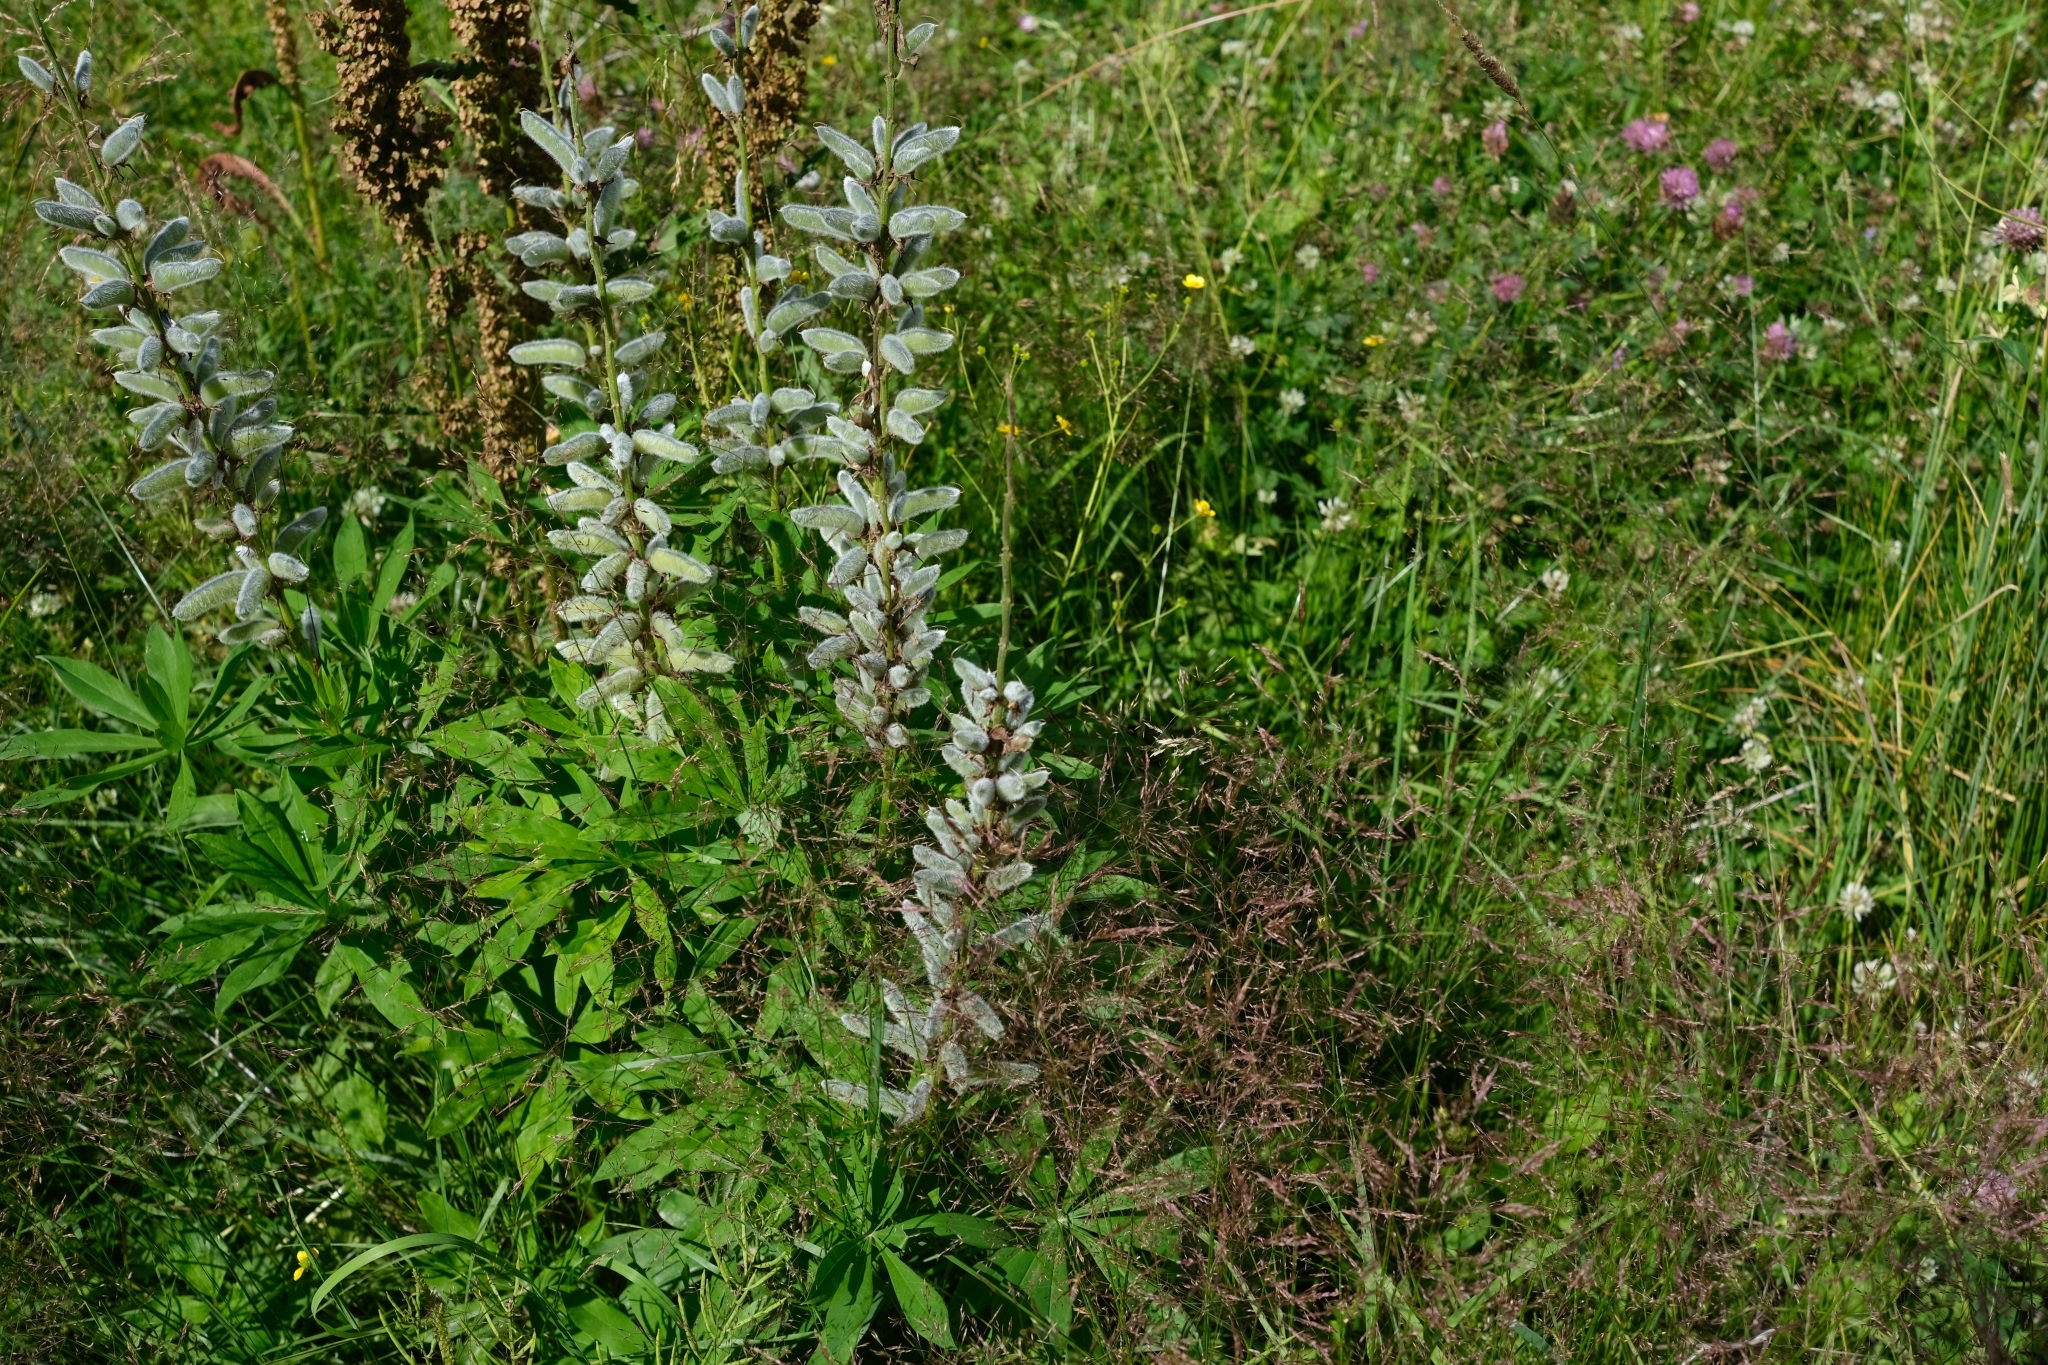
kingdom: Plantae
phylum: Tracheophyta
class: Magnoliopsida
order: Fabales
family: Fabaceae
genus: Lupinus
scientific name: Lupinus polyphyllus
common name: Garden lupin
